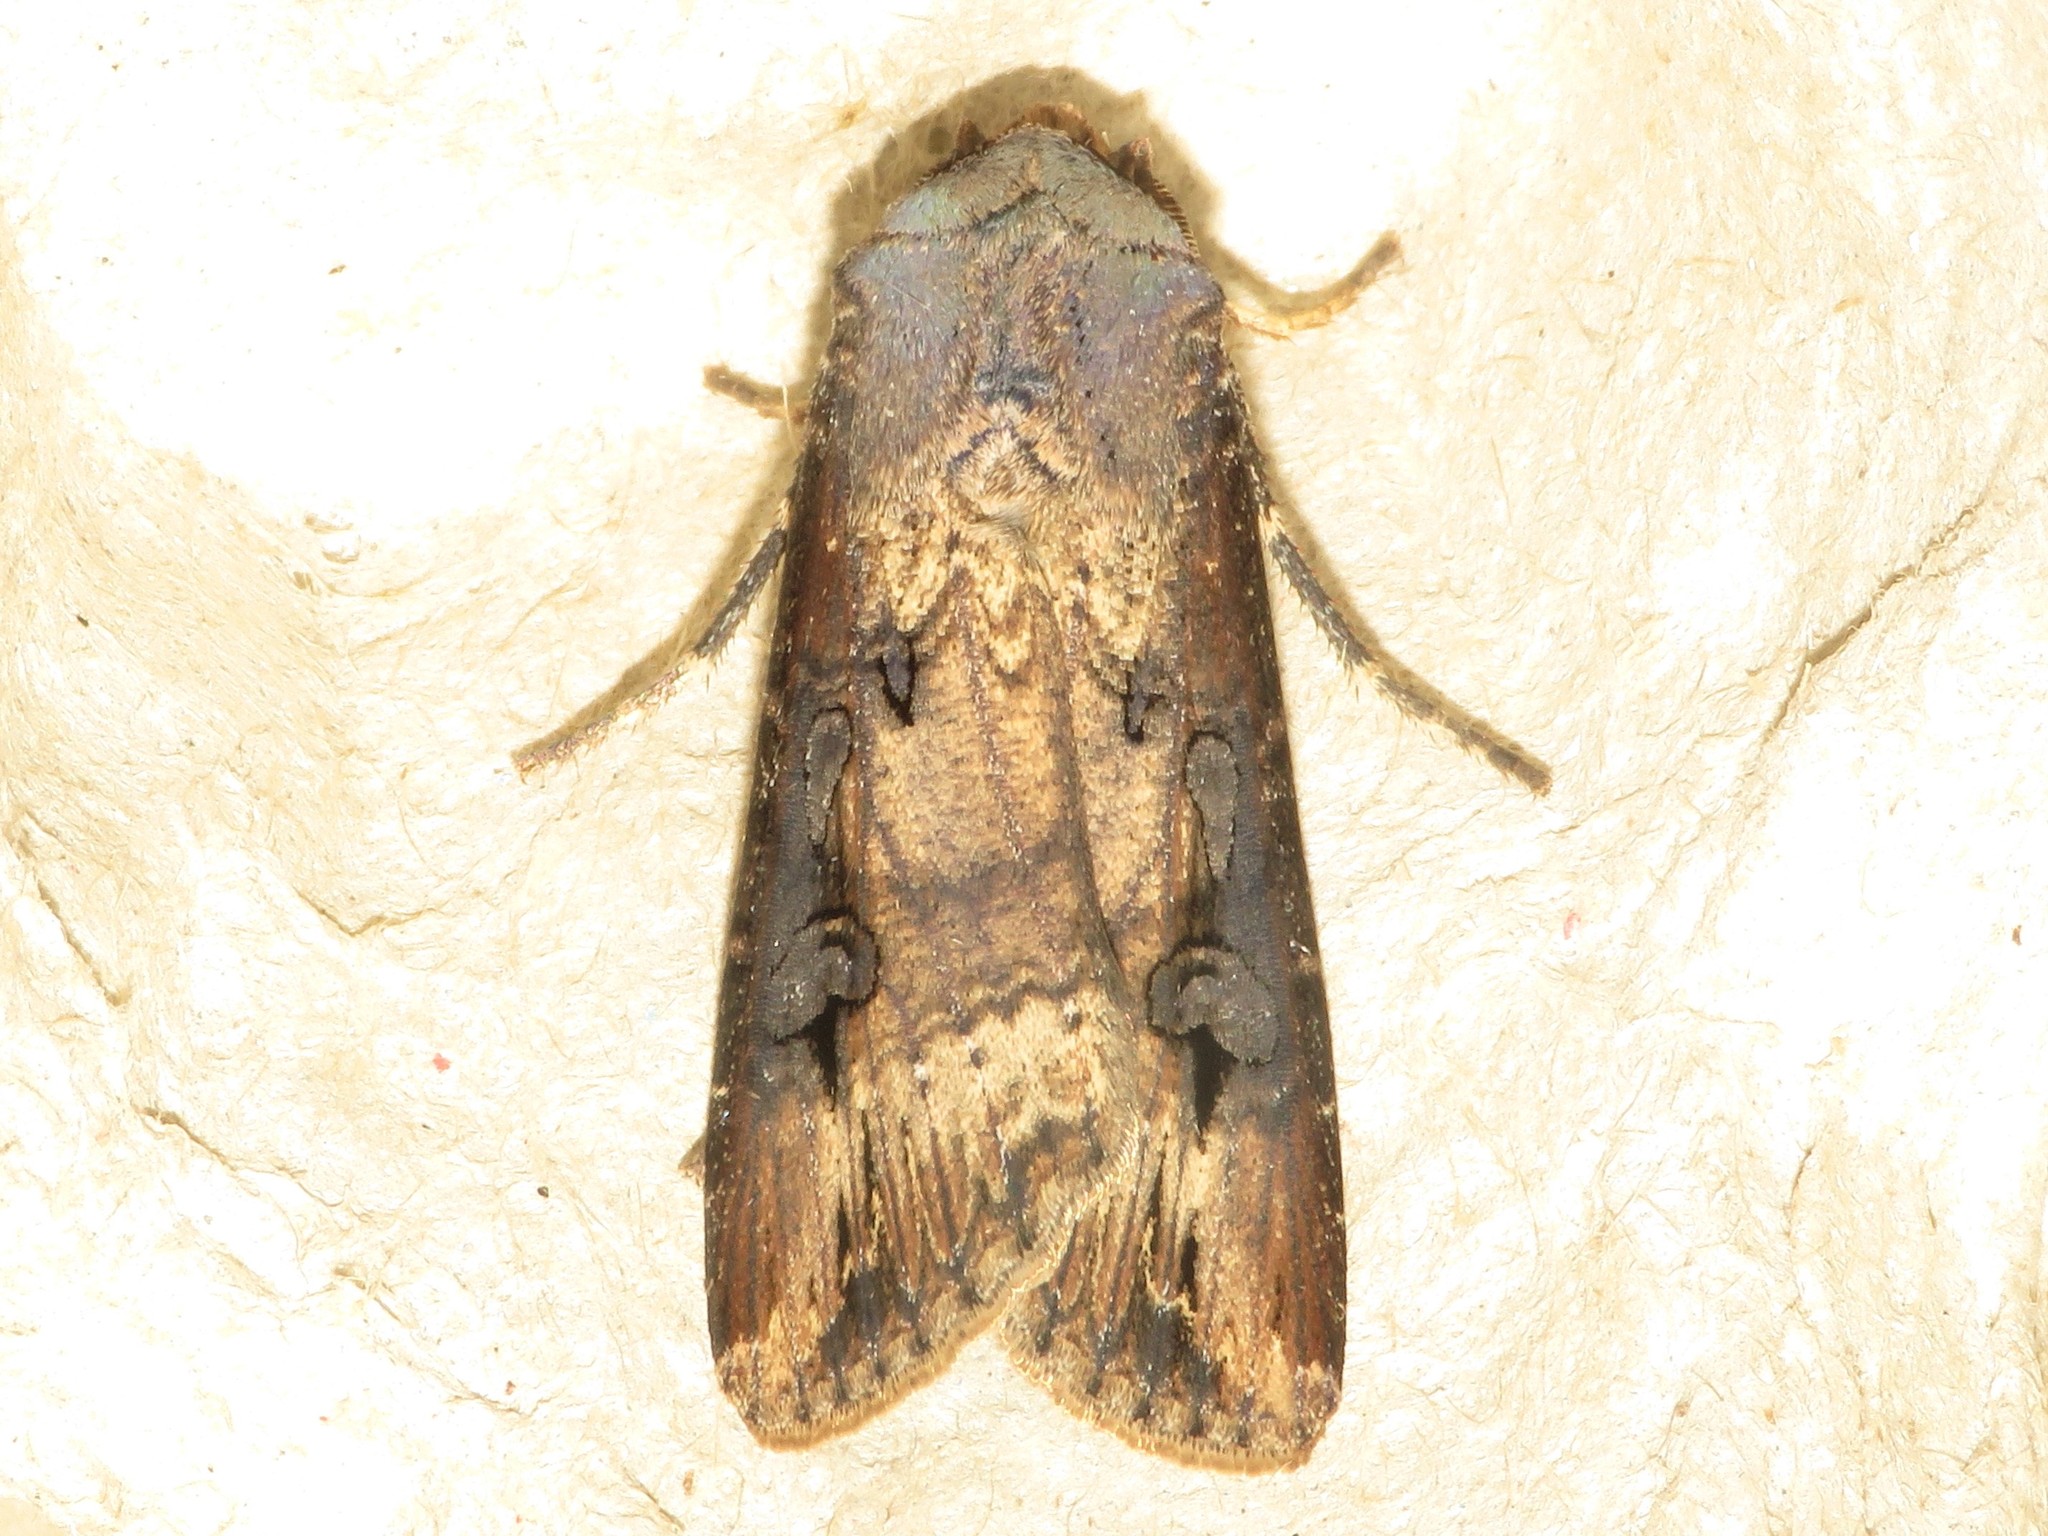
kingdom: Animalia
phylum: Arthropoda
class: Insecta
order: Lepidoptera
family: Noctuidae
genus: Agrotis
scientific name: Agrotis ipsilon
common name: Dark sword-grass
